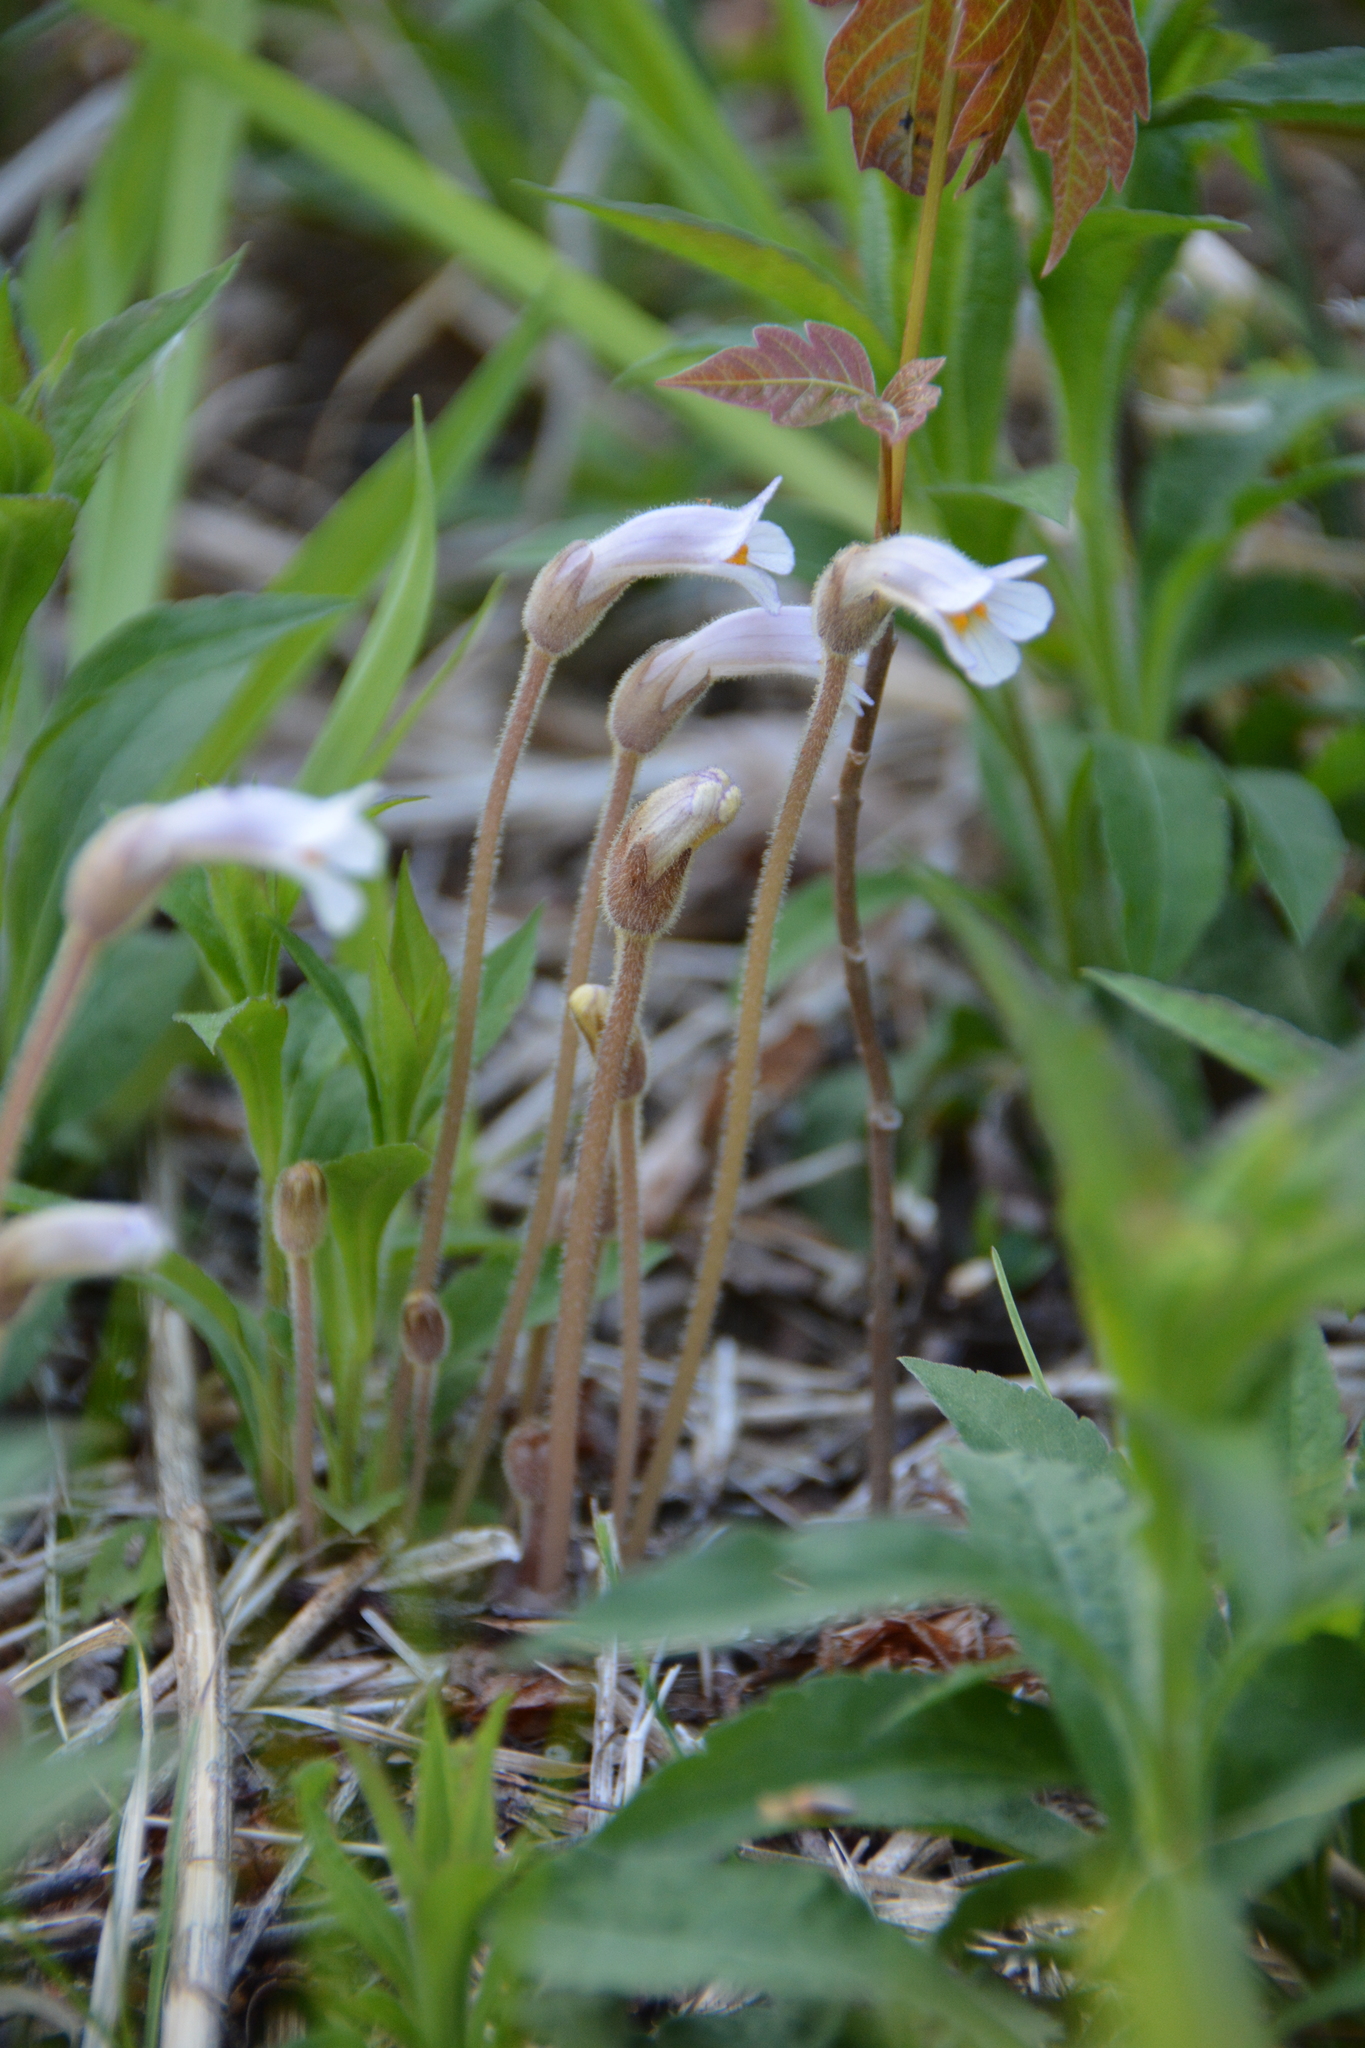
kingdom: Plantae
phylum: Tracheophyta
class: Magnoliopsida
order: Lamiales
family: Orobanchaceae
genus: Aphyllon
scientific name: Aphyllon uniflorum
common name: One-flowered broomrape
